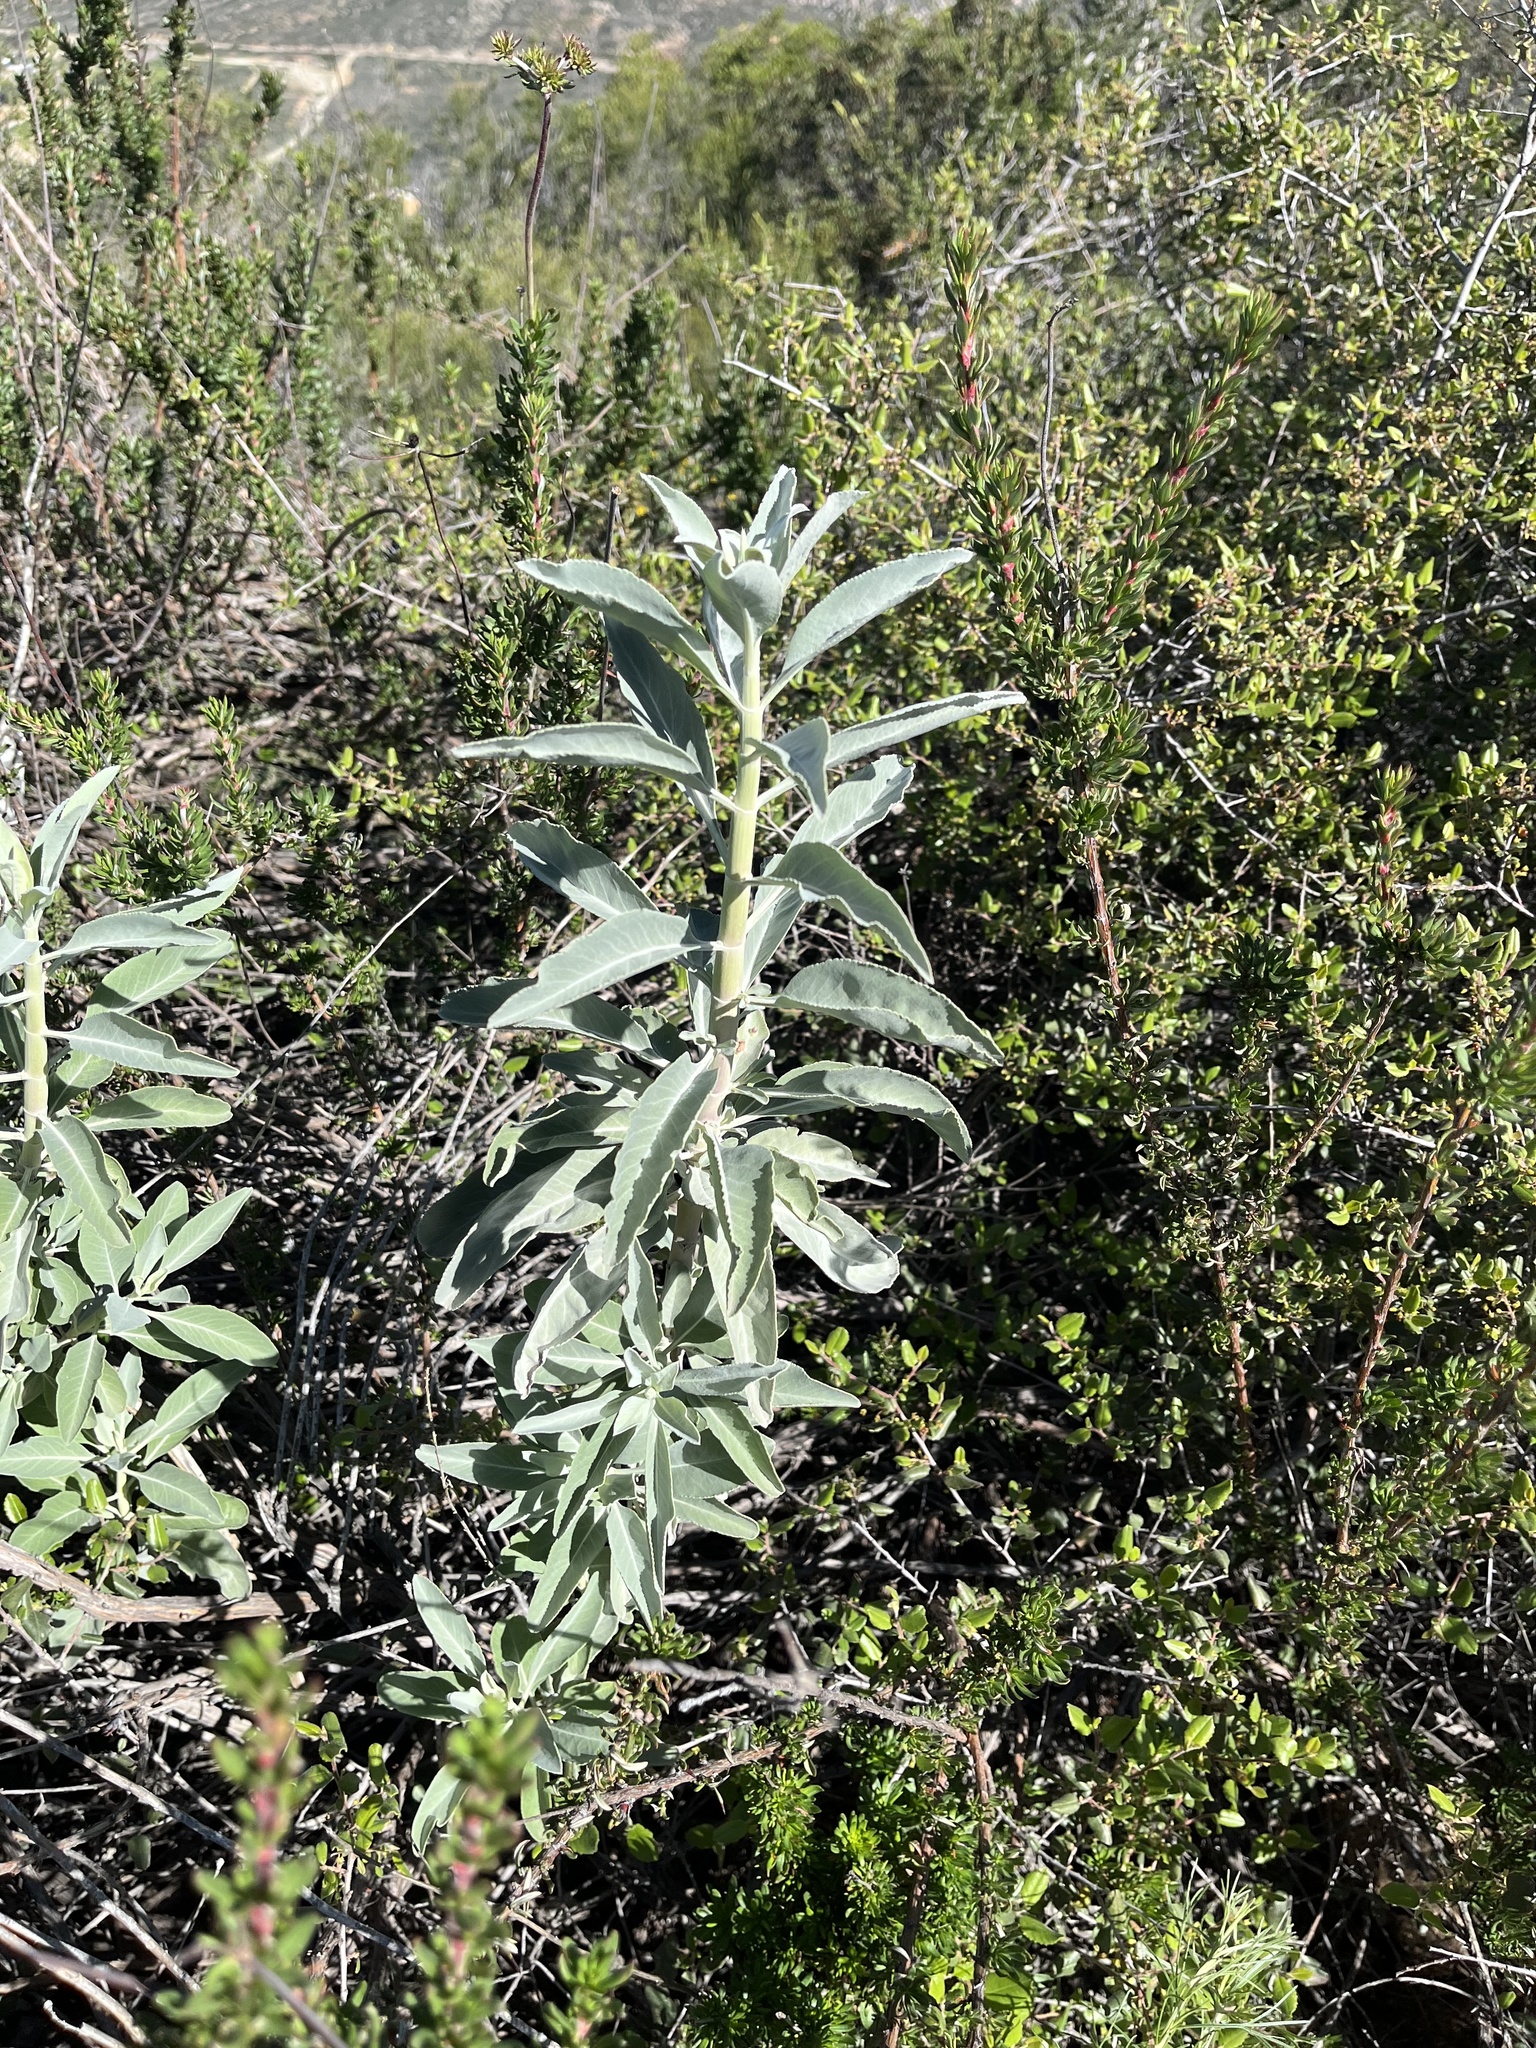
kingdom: Plantae
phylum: Tracheophyta
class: Magnoliopsida
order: Lamiales
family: Lamiaceae
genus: Salvia
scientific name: Salvia apiana
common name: White sage
